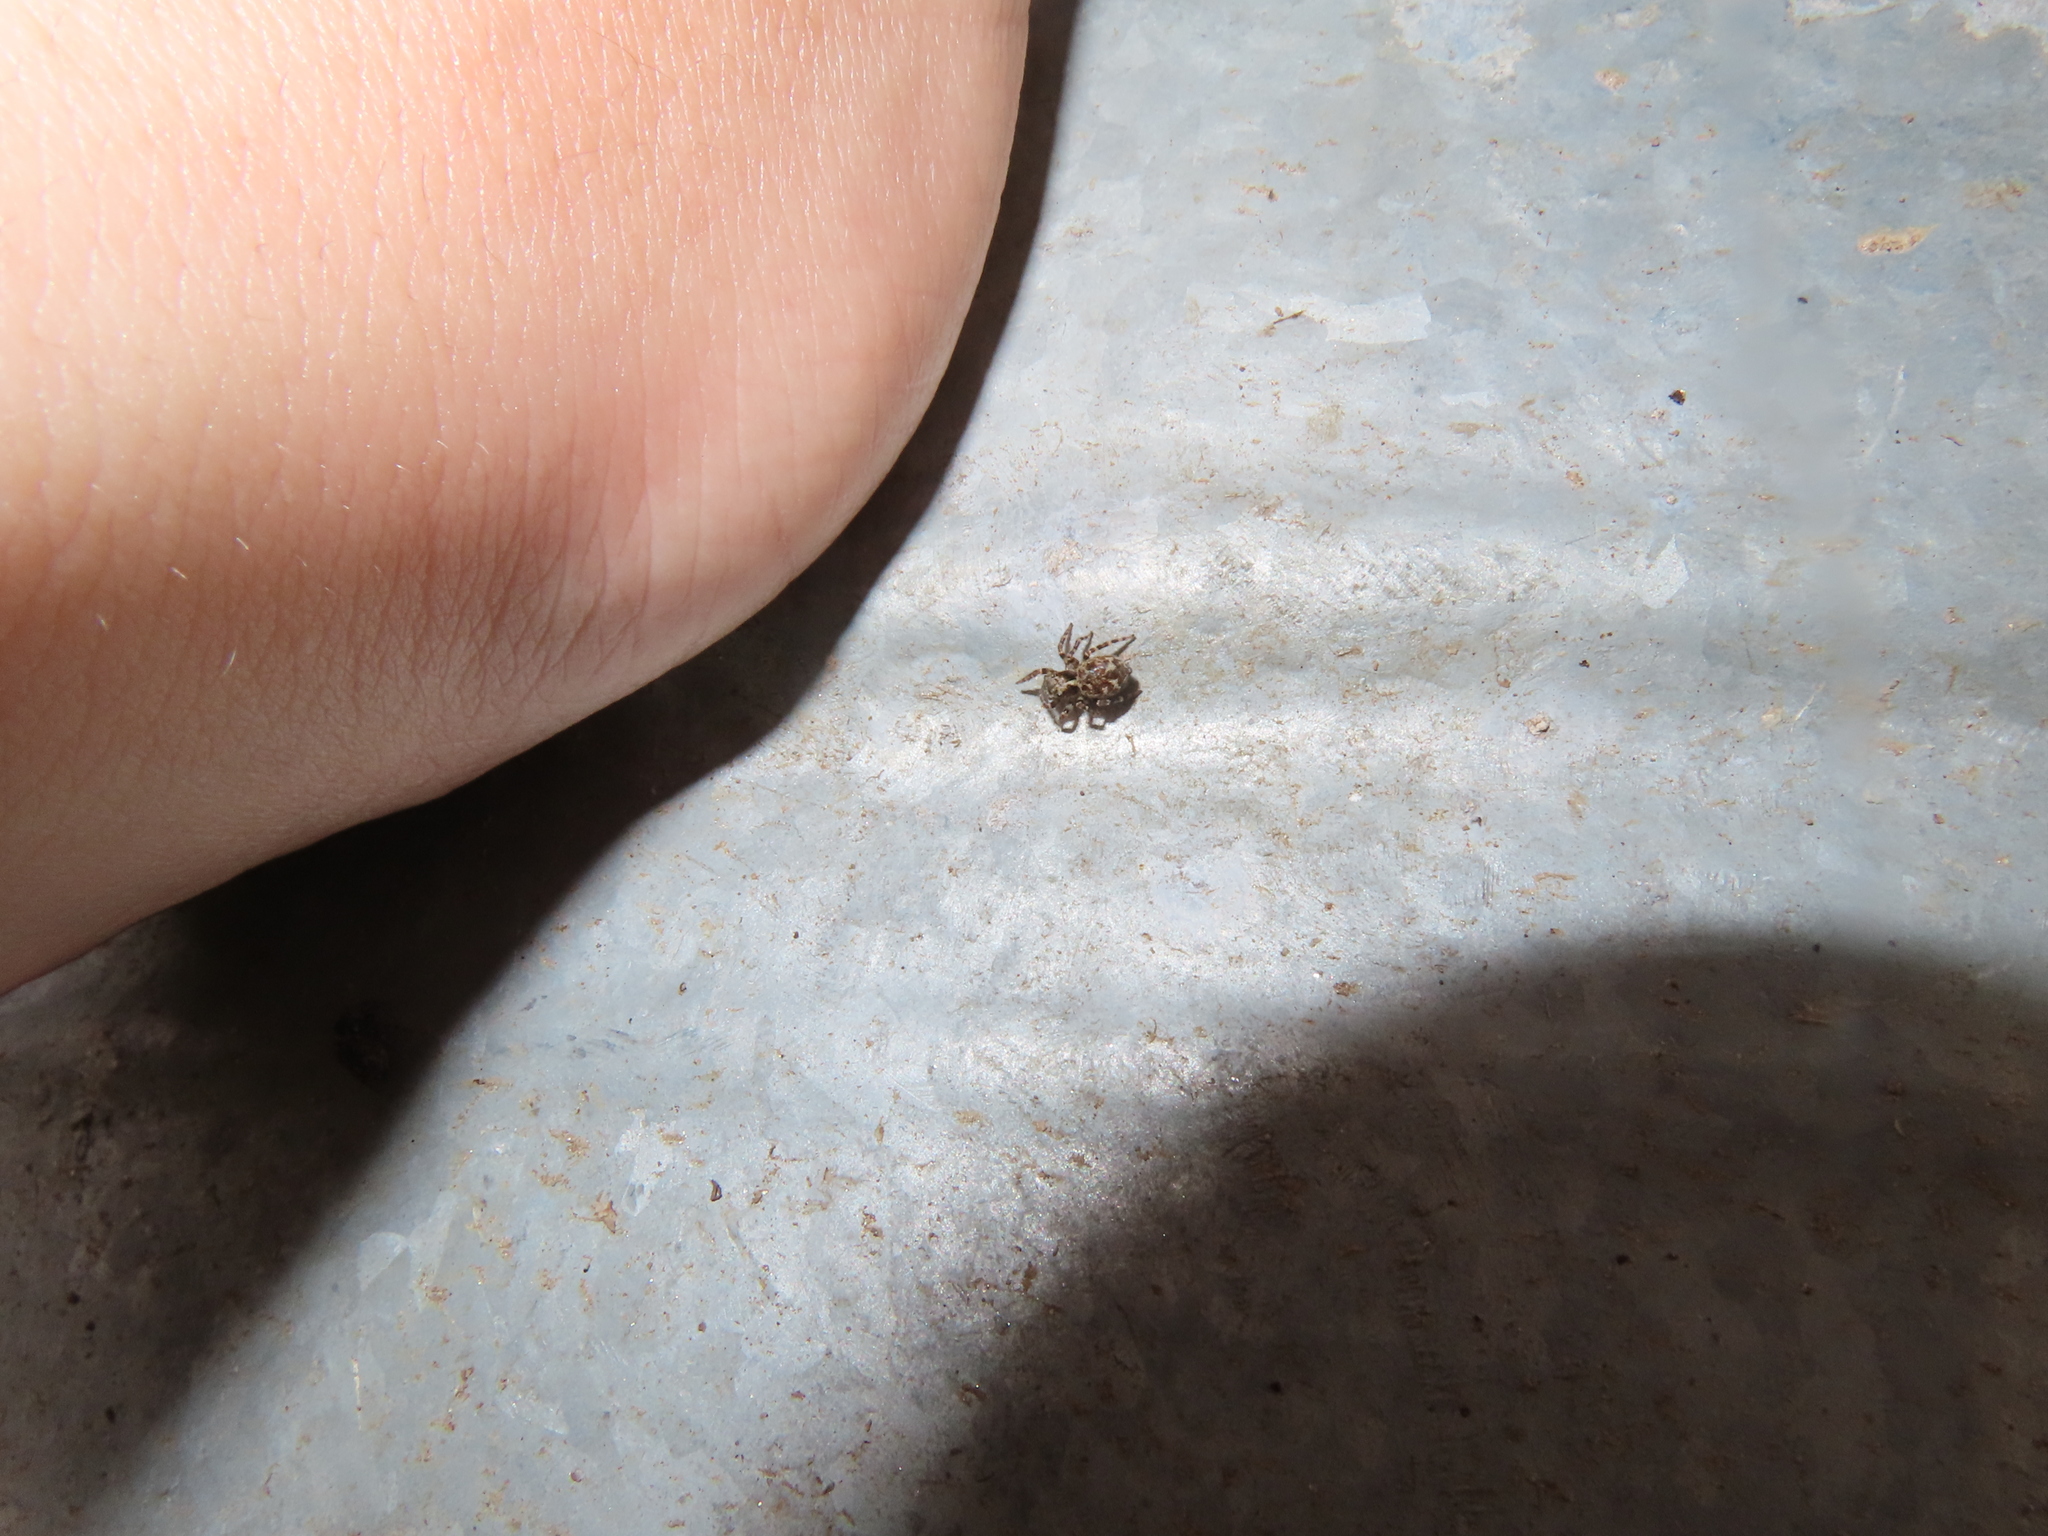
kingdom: Animalia
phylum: Arthropoda
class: Arachnida
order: Araneae
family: Salticidae
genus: Pseudeuophrys
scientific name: Pseudeuophrys erratica
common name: Jumping spider
